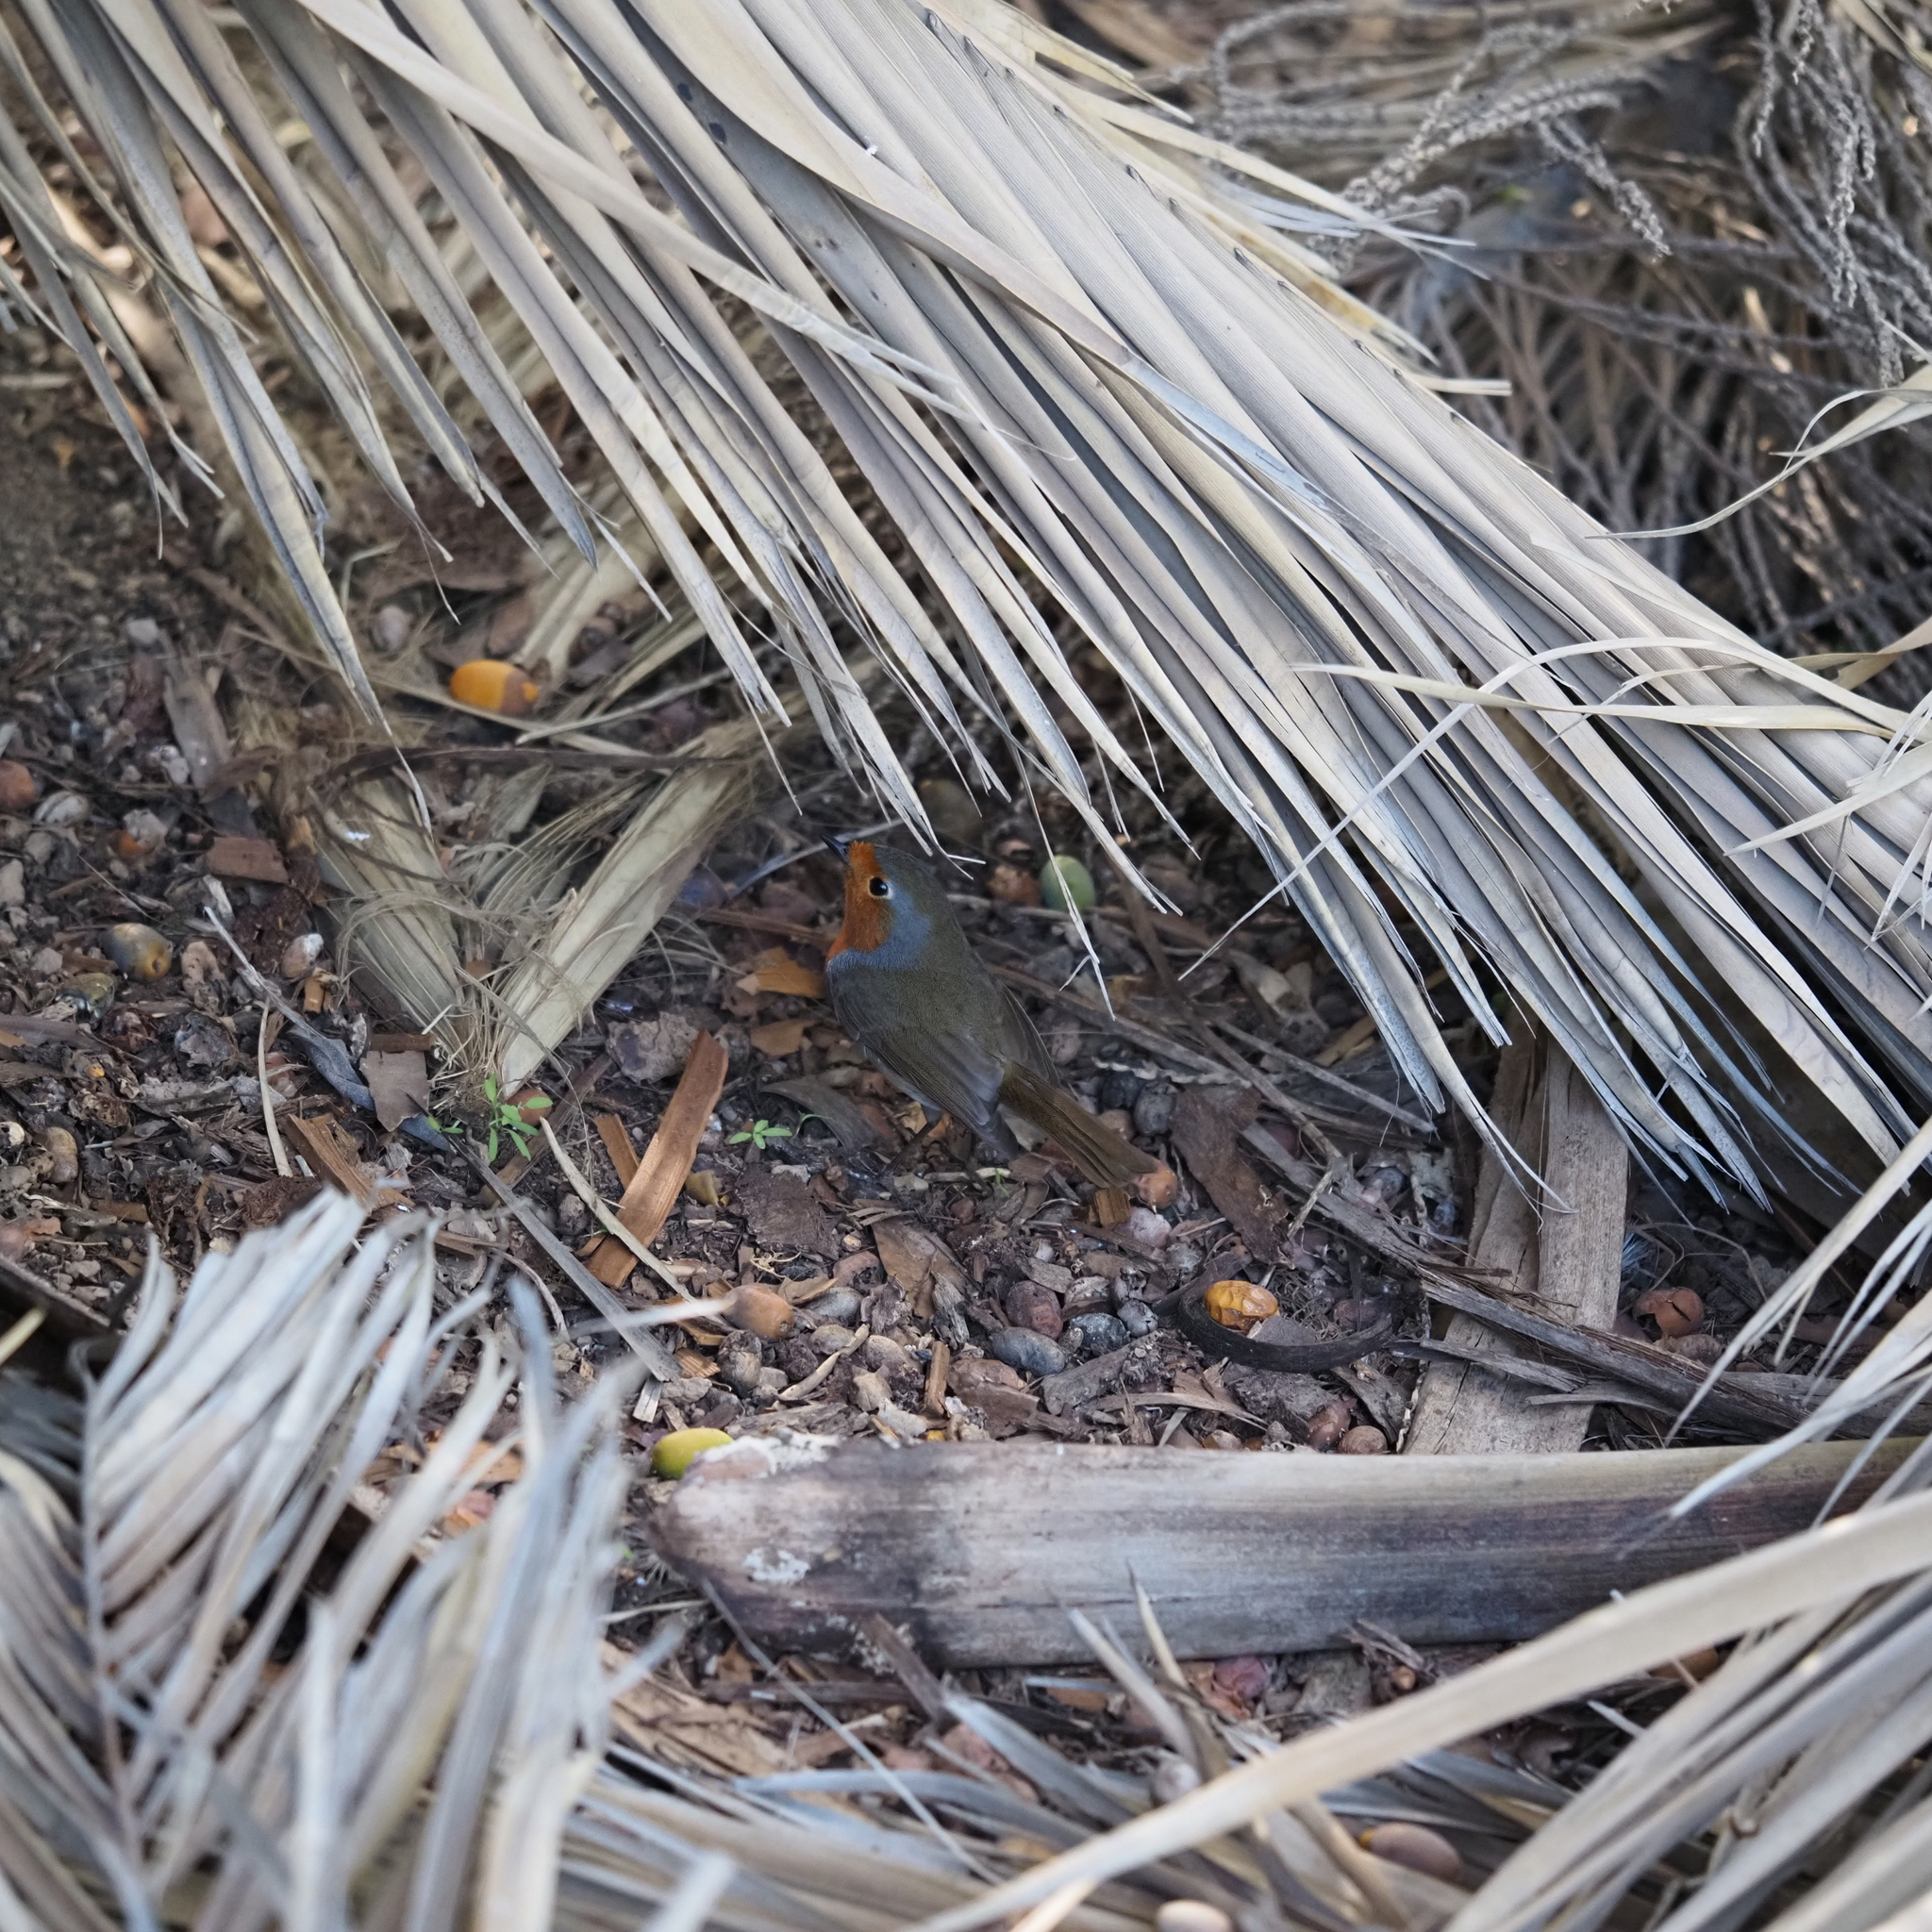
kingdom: Animalia
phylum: Chordata
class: Aves
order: Passeriformes
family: Muscicapidae
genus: Erithacus
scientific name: Erithacus rubecula
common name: European robin
